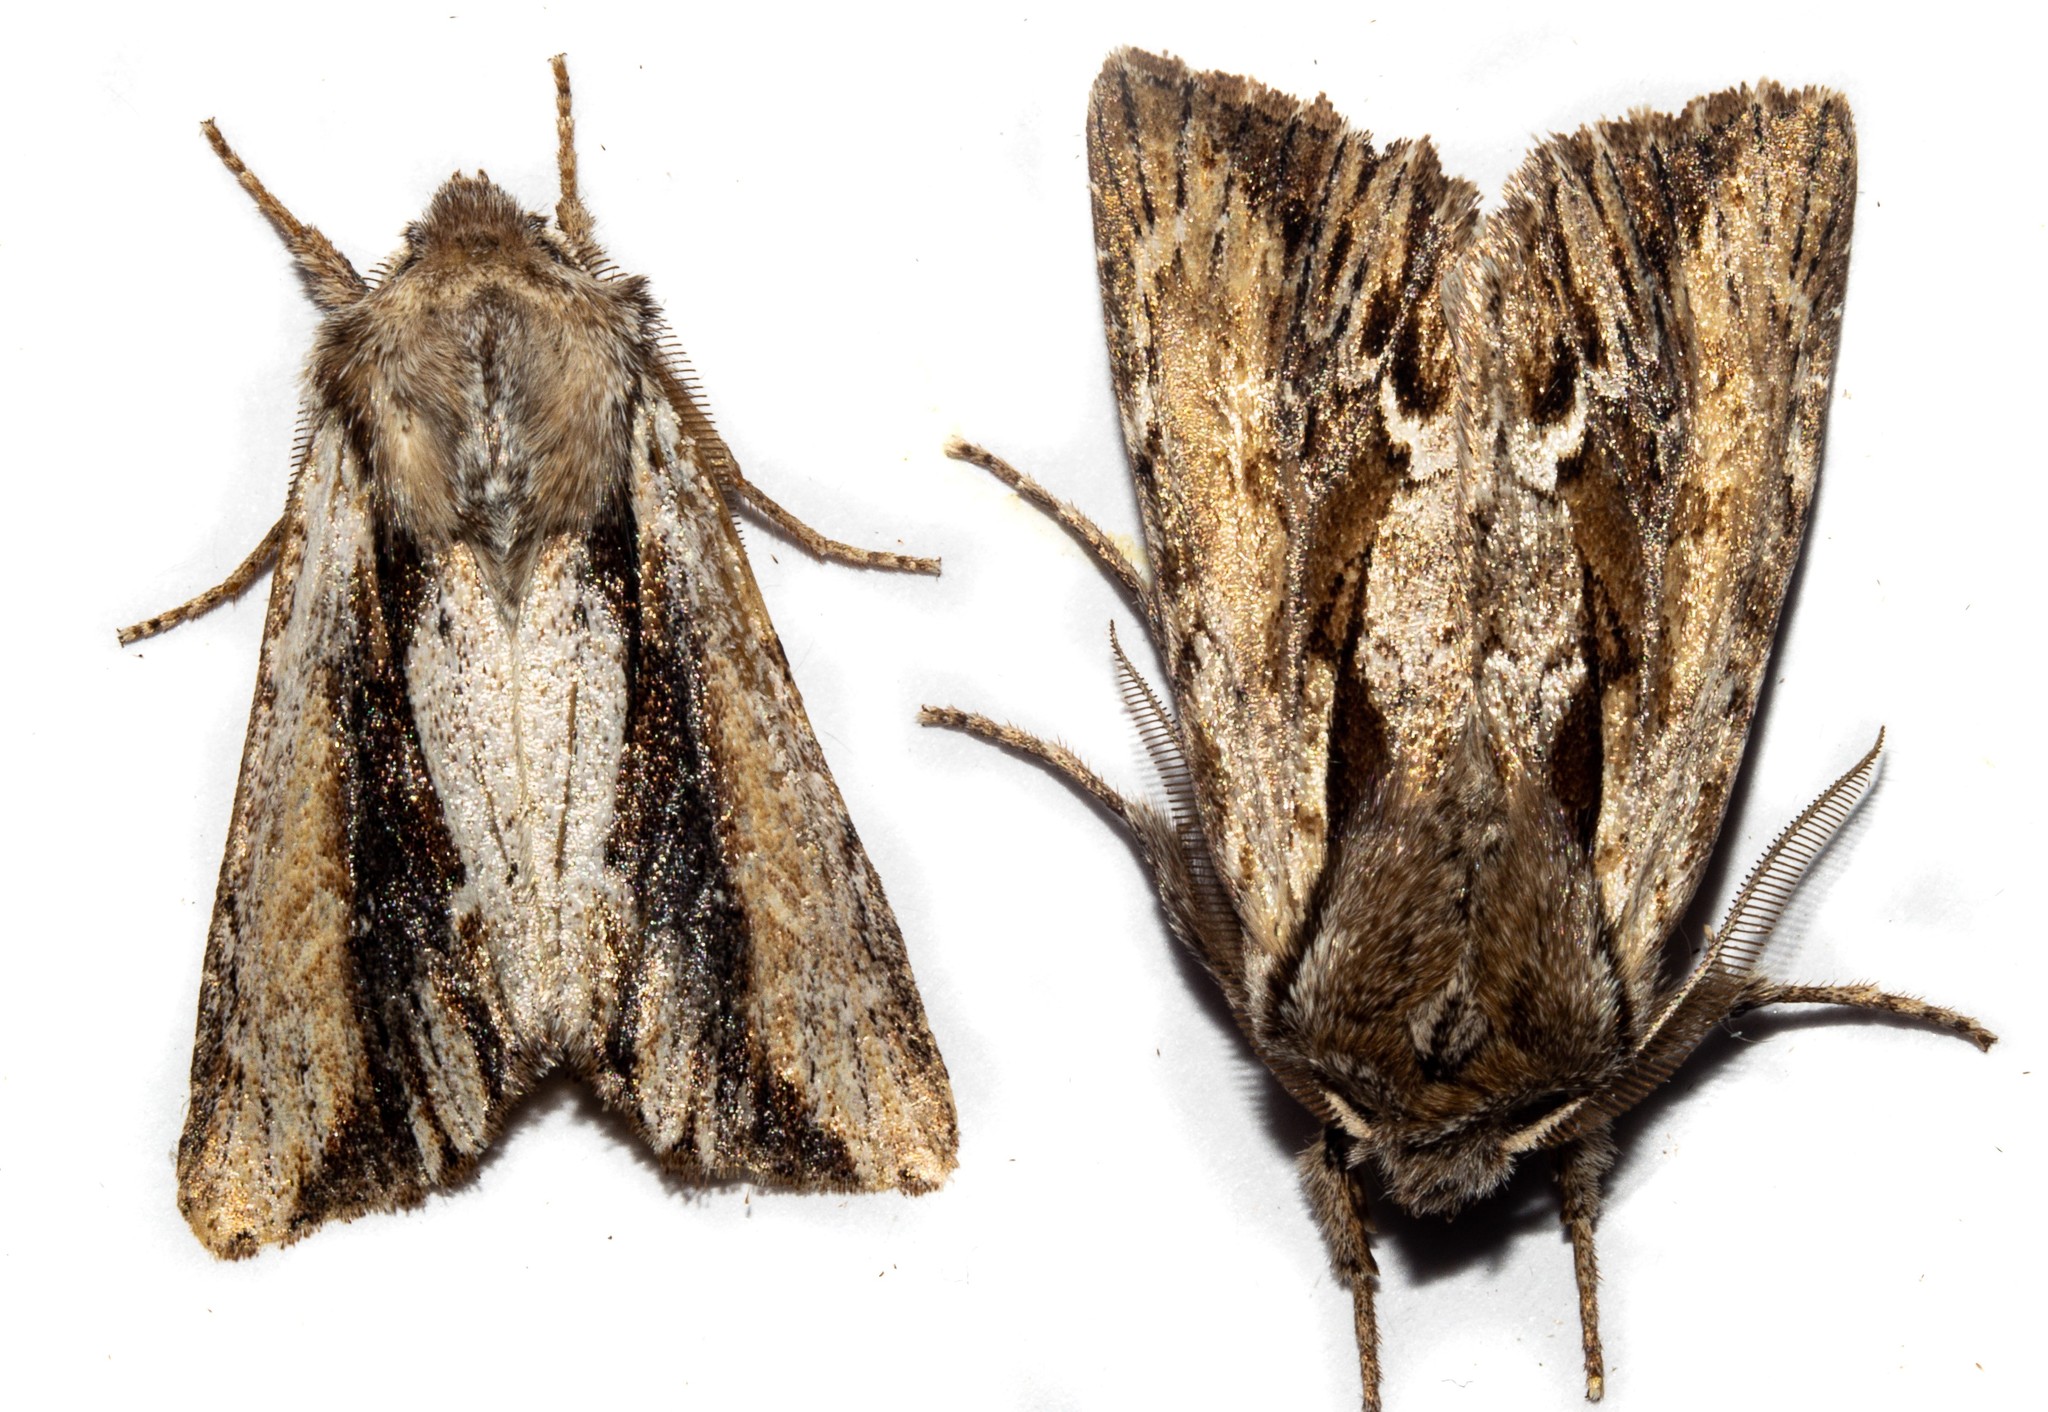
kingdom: Animalia
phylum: Arthropoda
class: Insecta
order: Lepidoptera
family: Noctuidae
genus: Ichneutica
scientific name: Ichneutica
